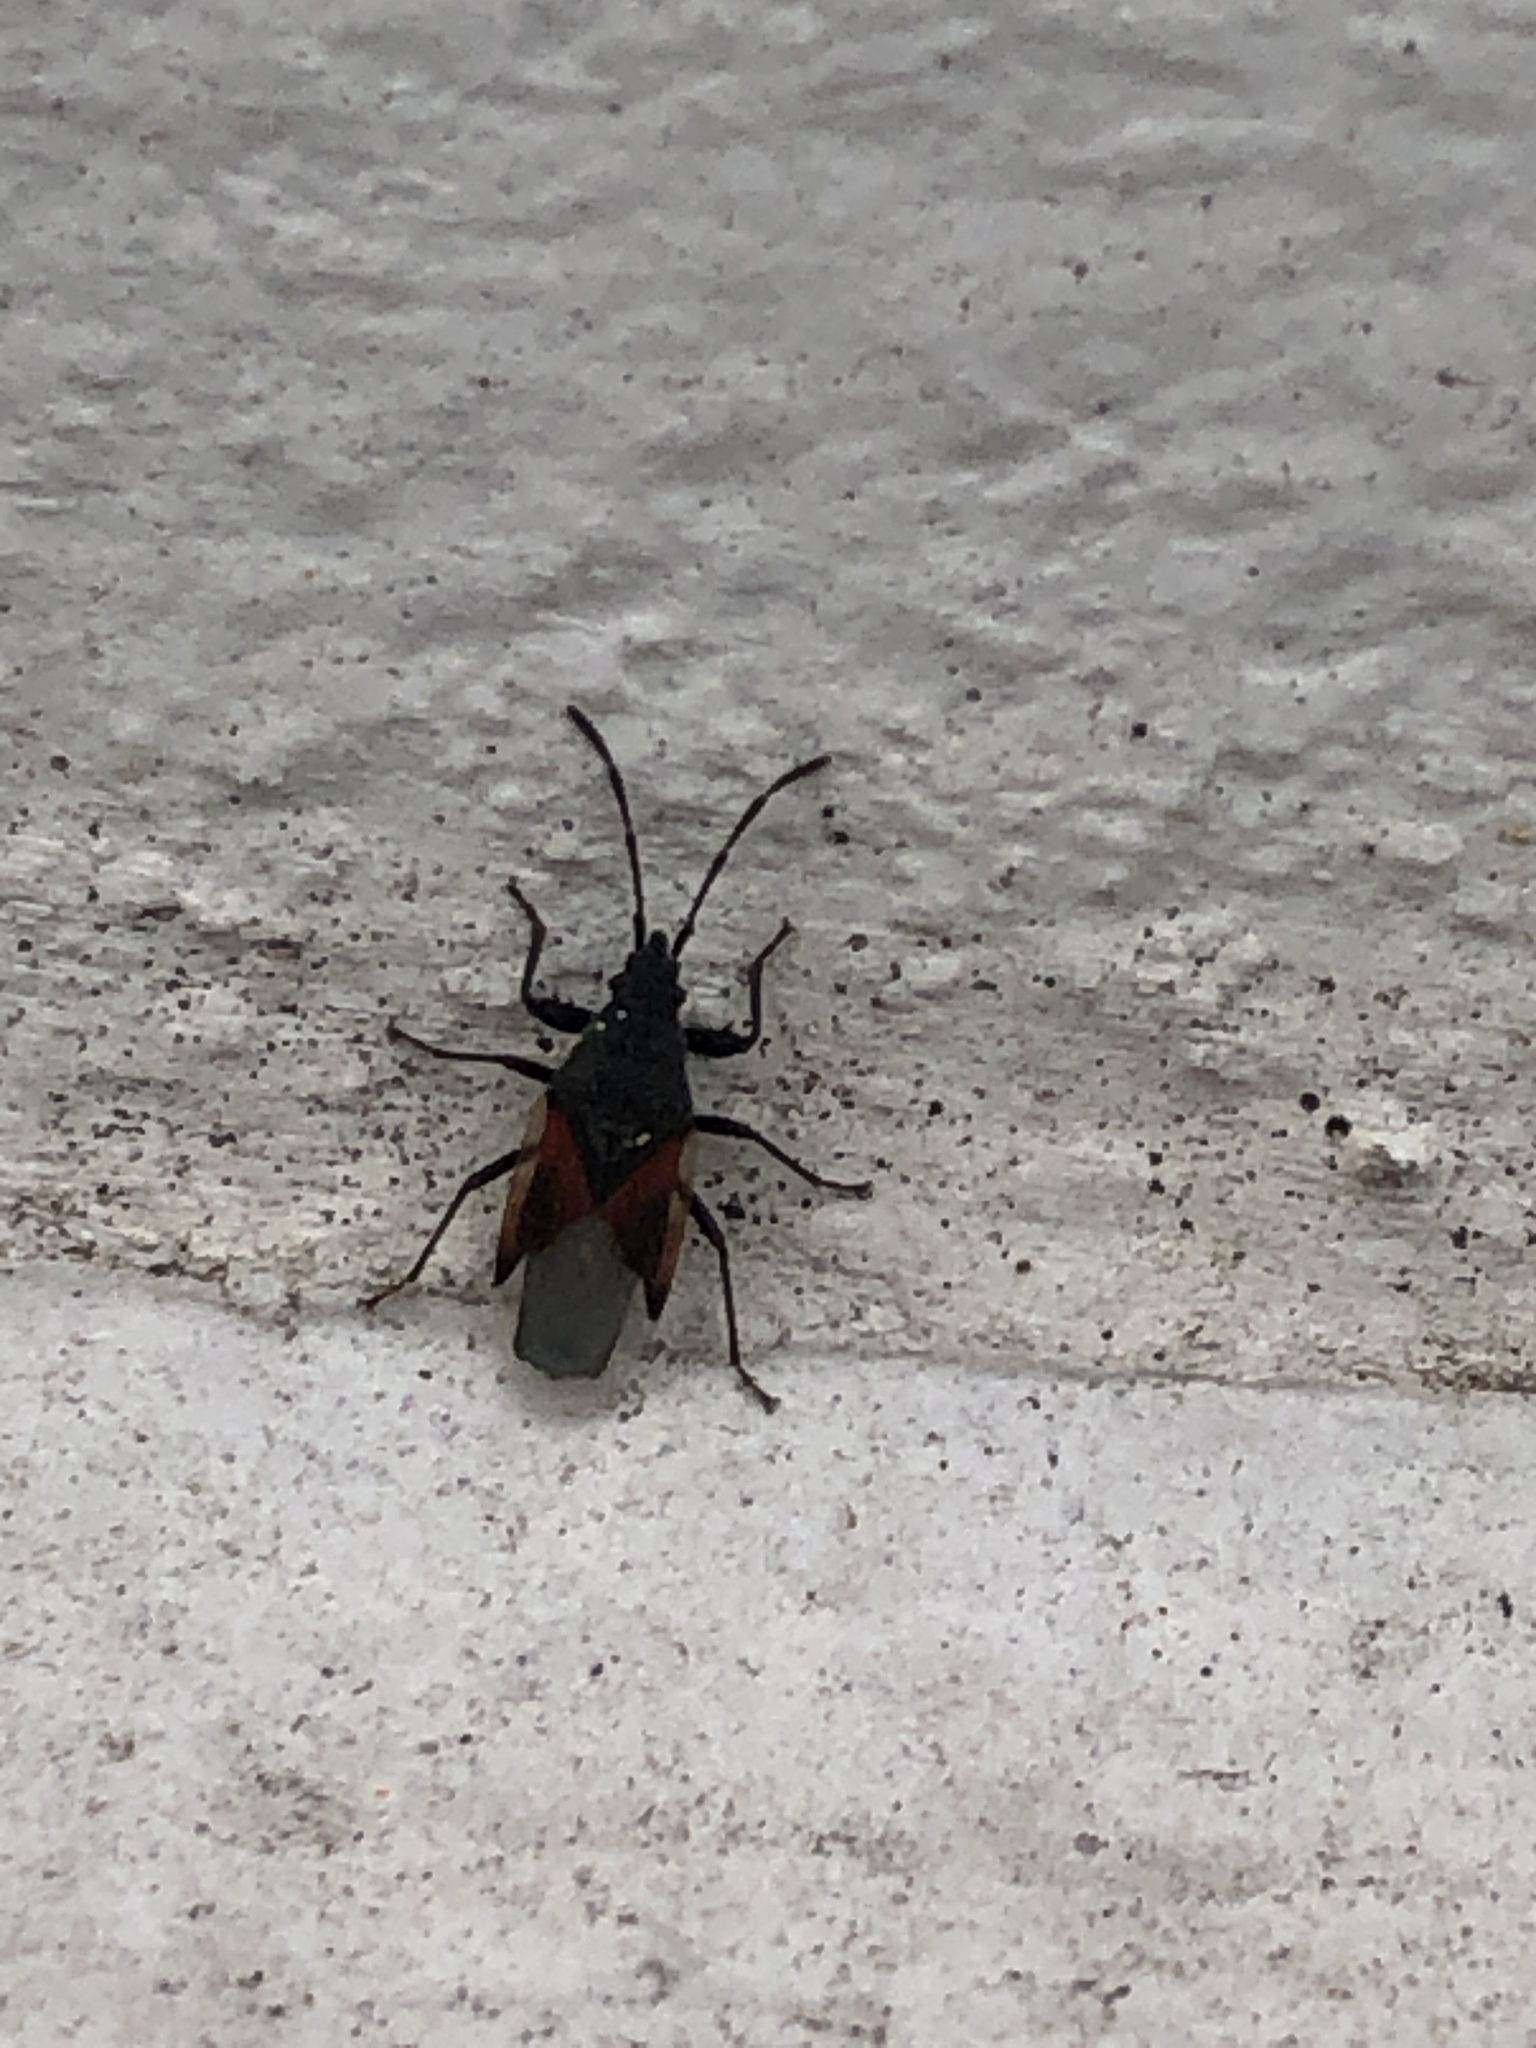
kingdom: Animalia
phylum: Arthropoda
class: Insecta
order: Hemiptera
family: Oxycarenidae
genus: Oxycarenus
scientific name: Oxycarenus lavaterae
